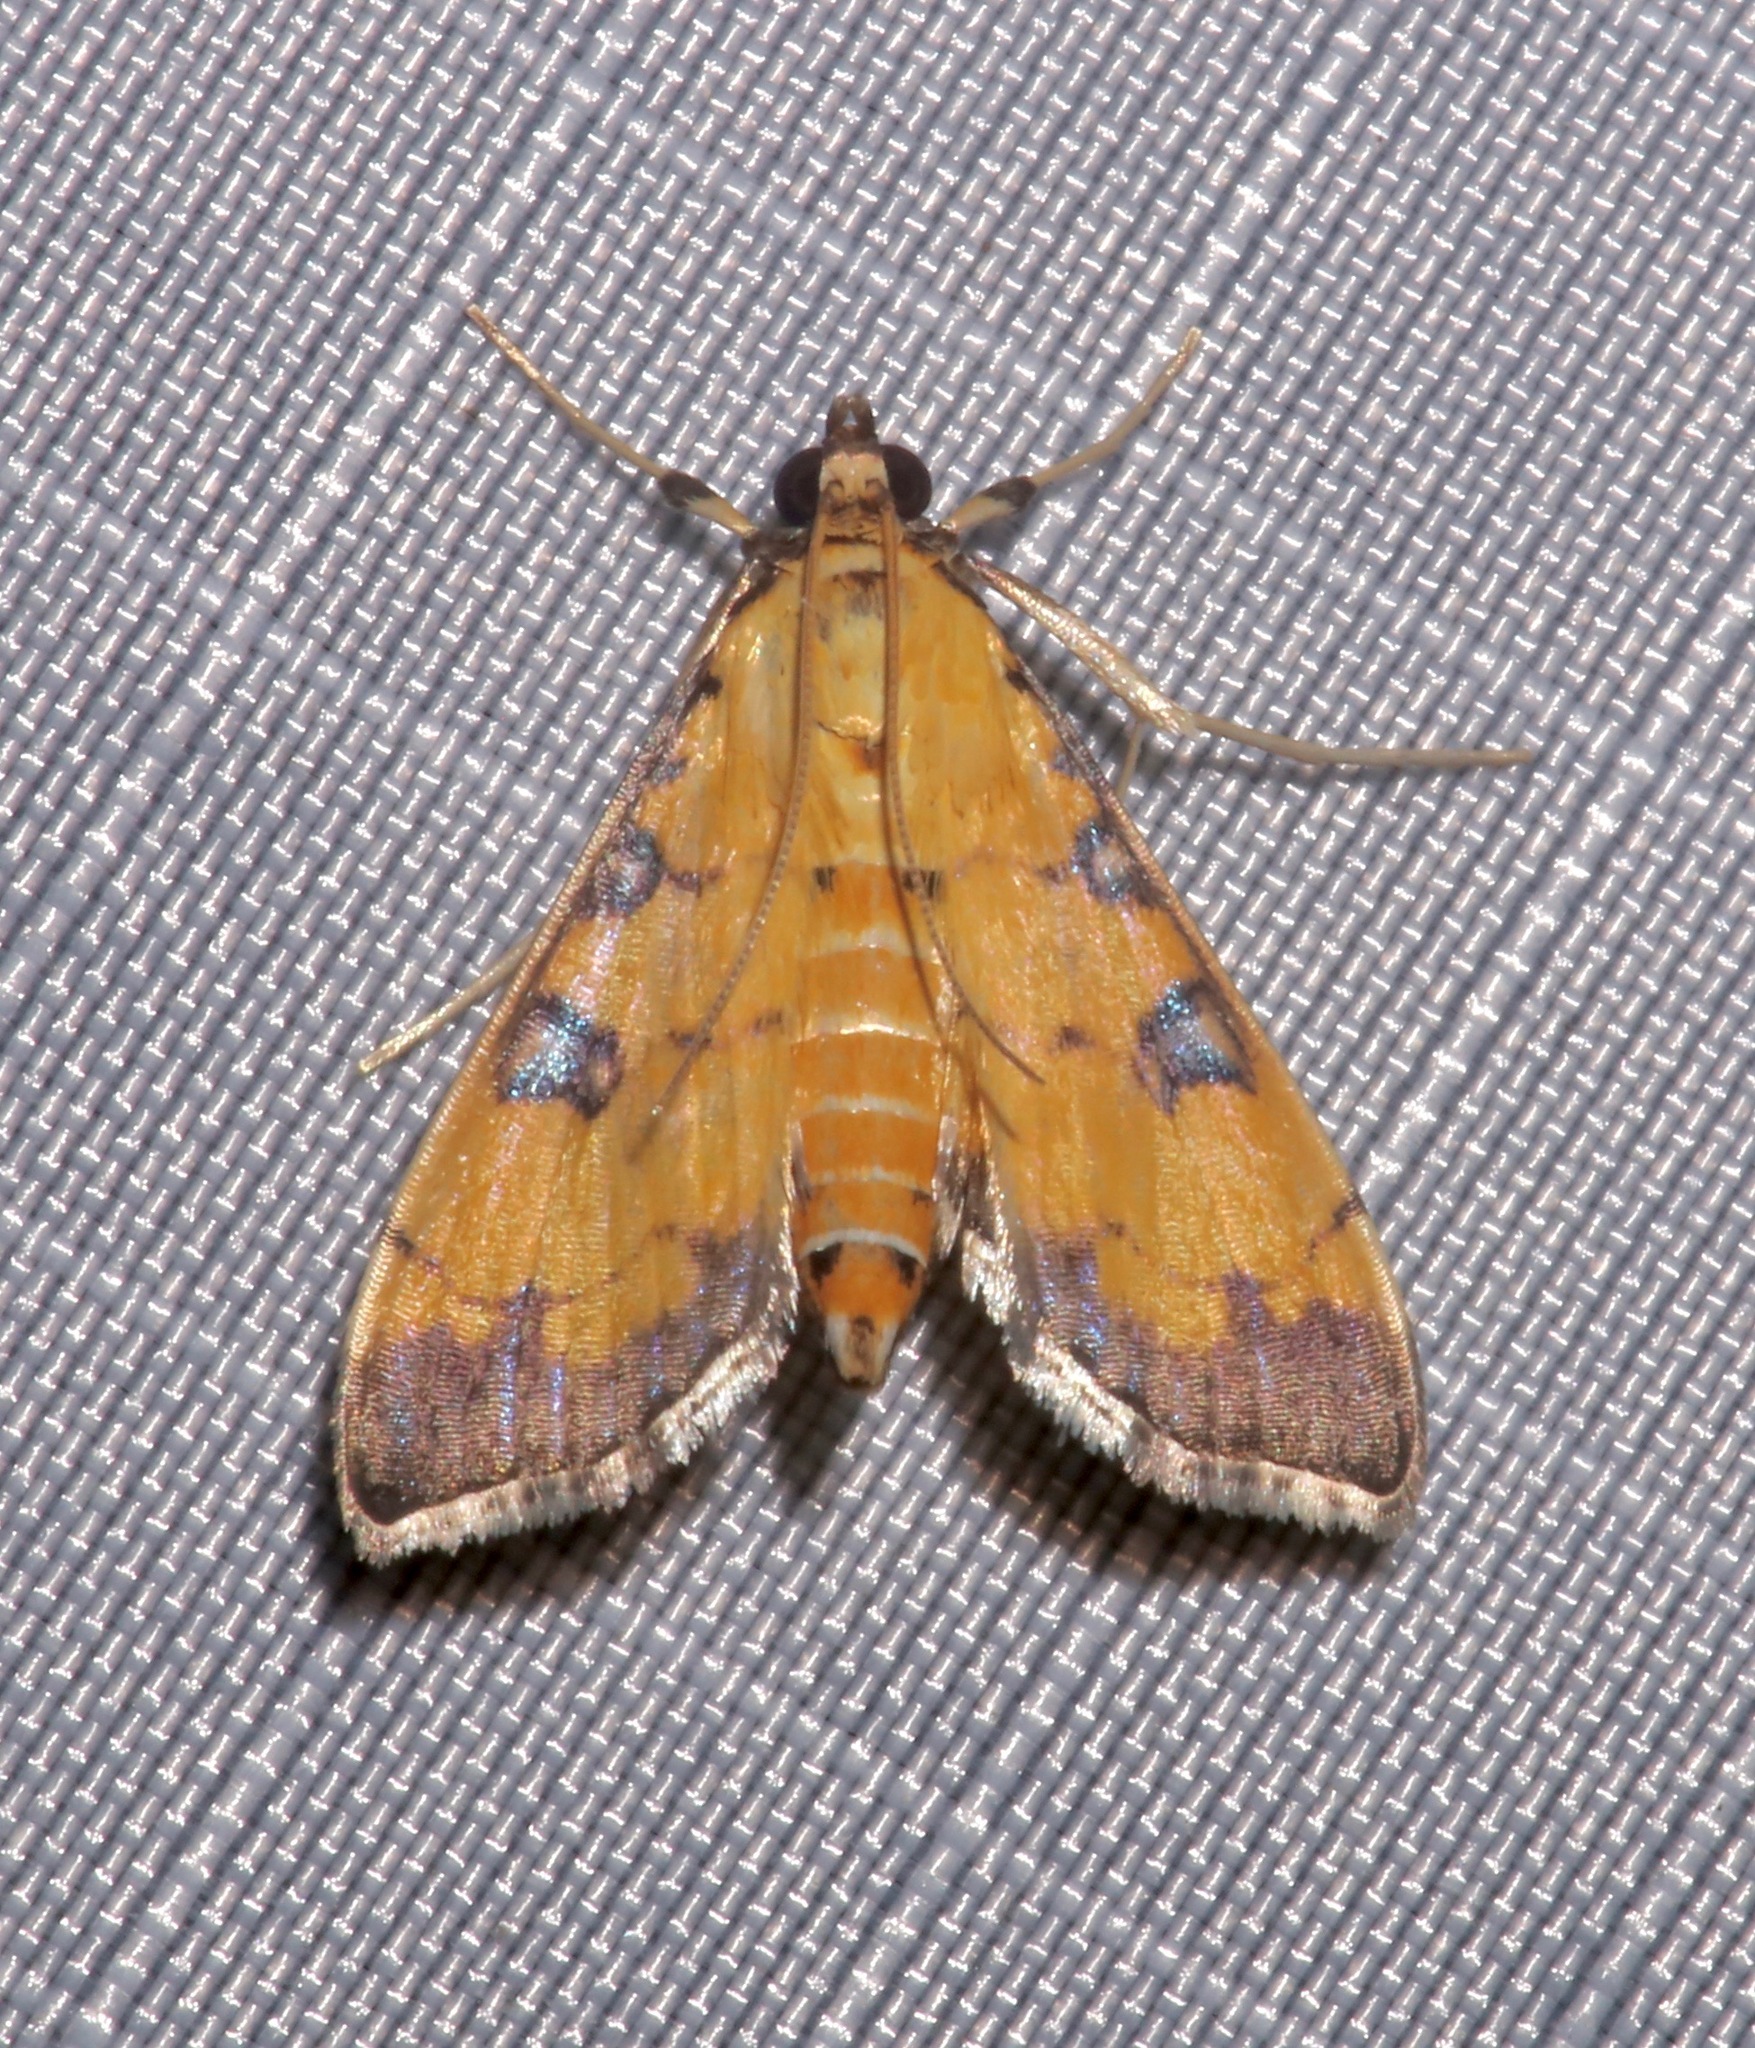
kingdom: Animalia
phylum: Arthropoda
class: Insecta
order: Lepidoptera
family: Crambidae
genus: Ategumia
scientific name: Ategumia ebulealis
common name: Moth
